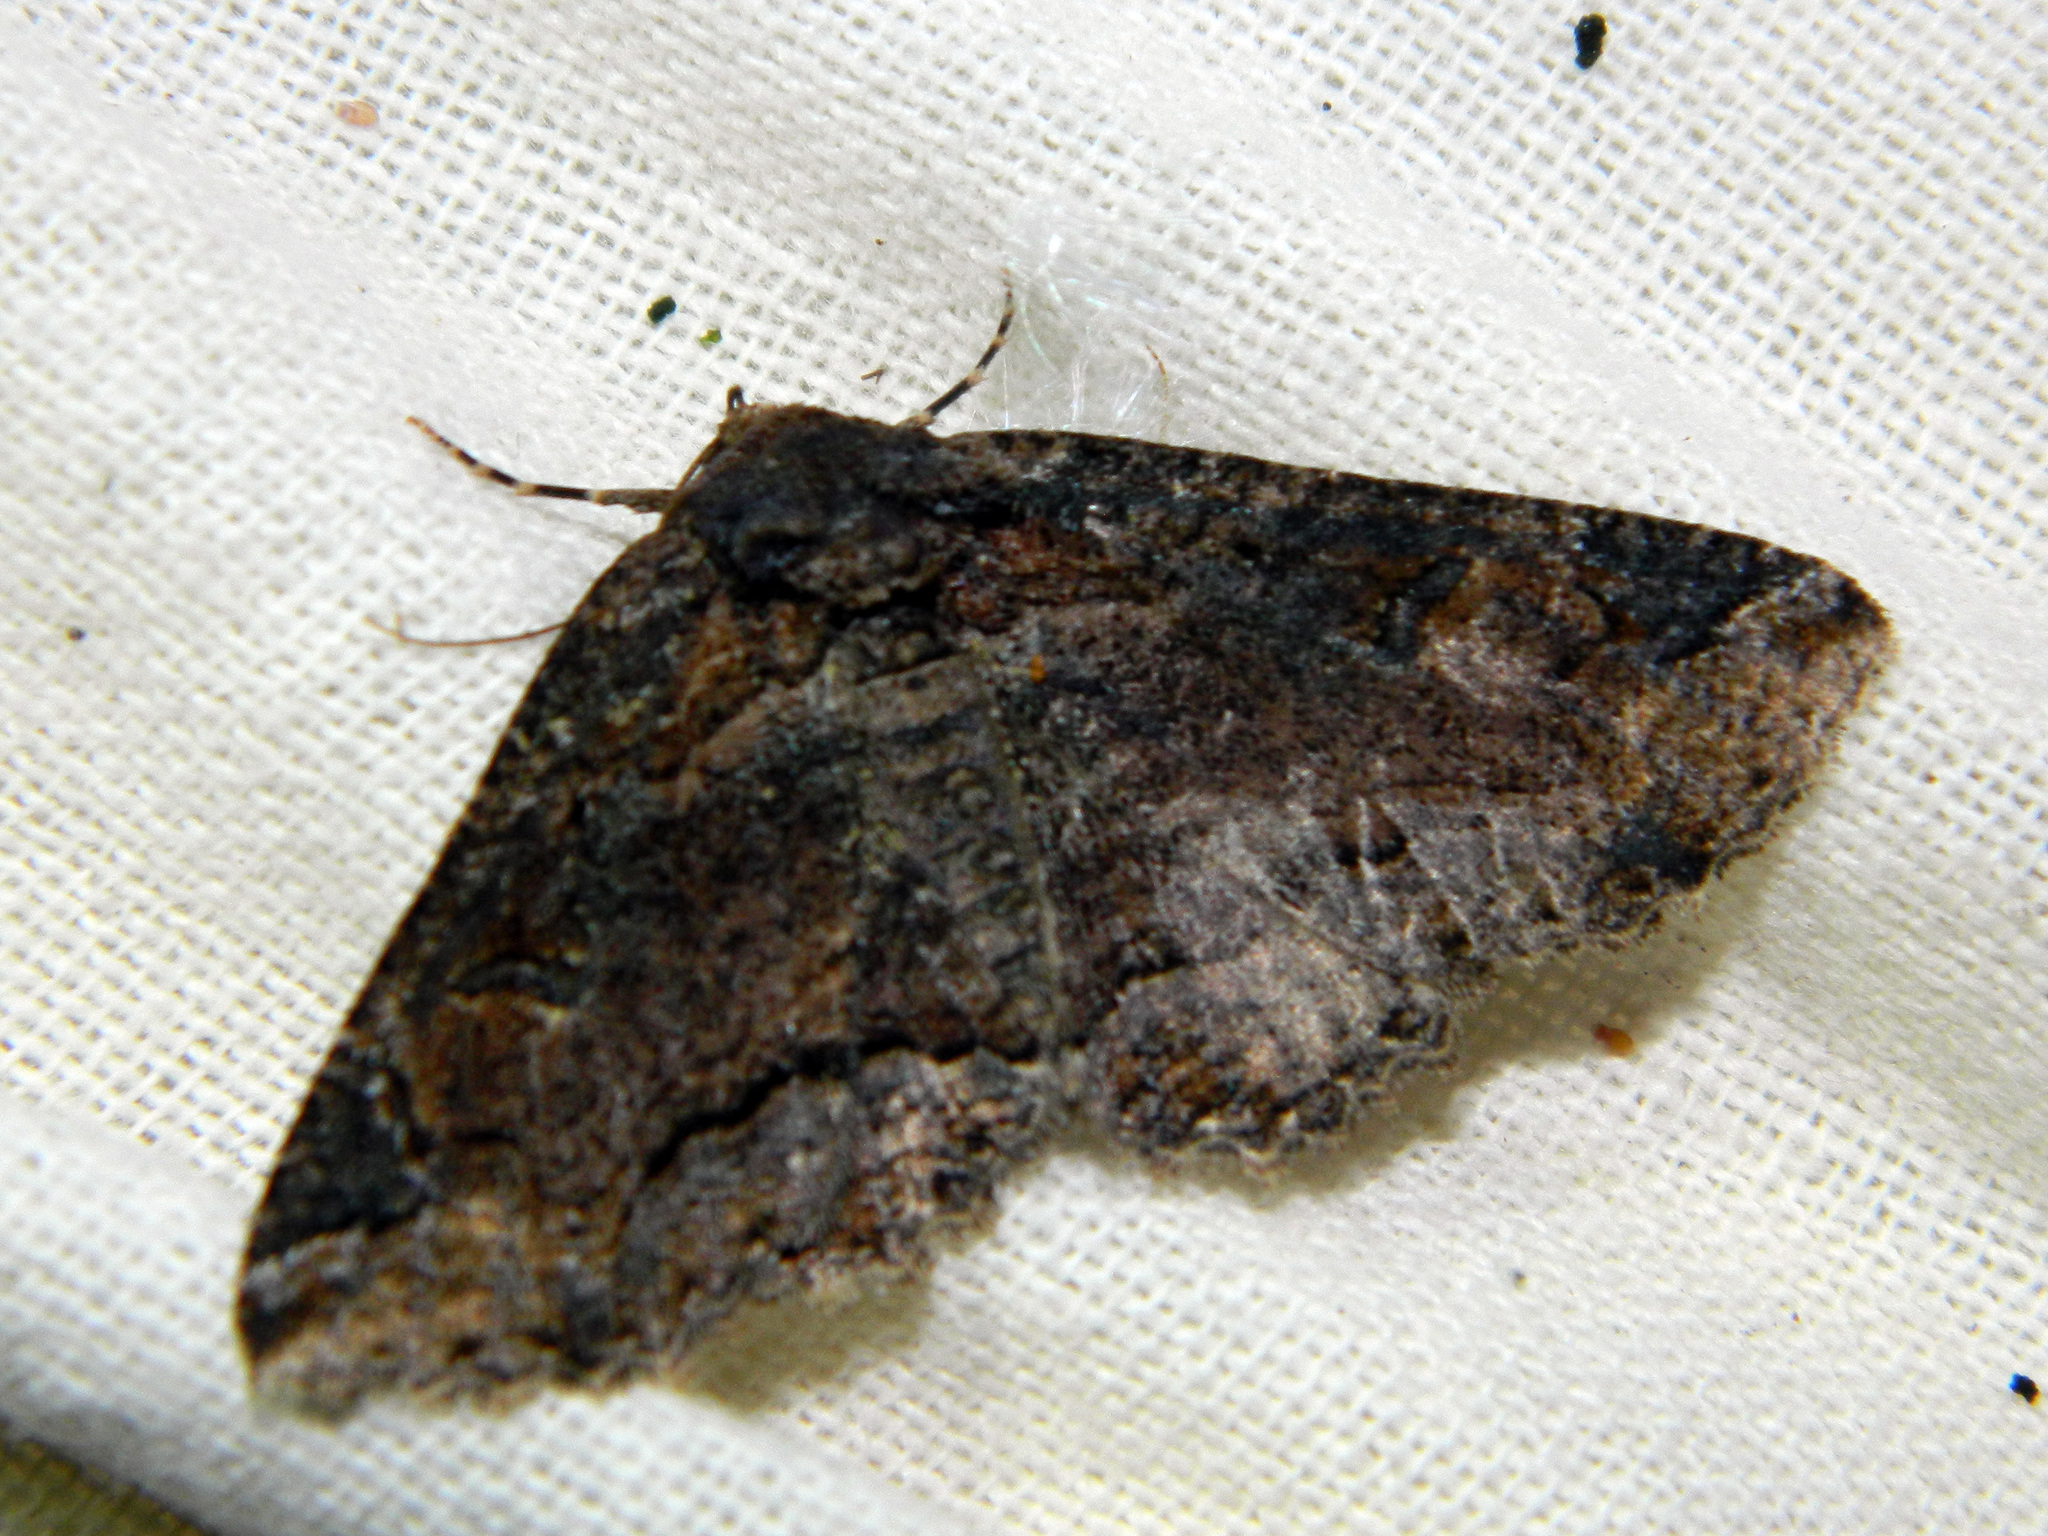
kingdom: Animalia
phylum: Arthropoda
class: Insecta
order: Lepidoptera
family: Erebidae
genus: Zale
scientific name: Zale minerea
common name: Colorful zale moth
